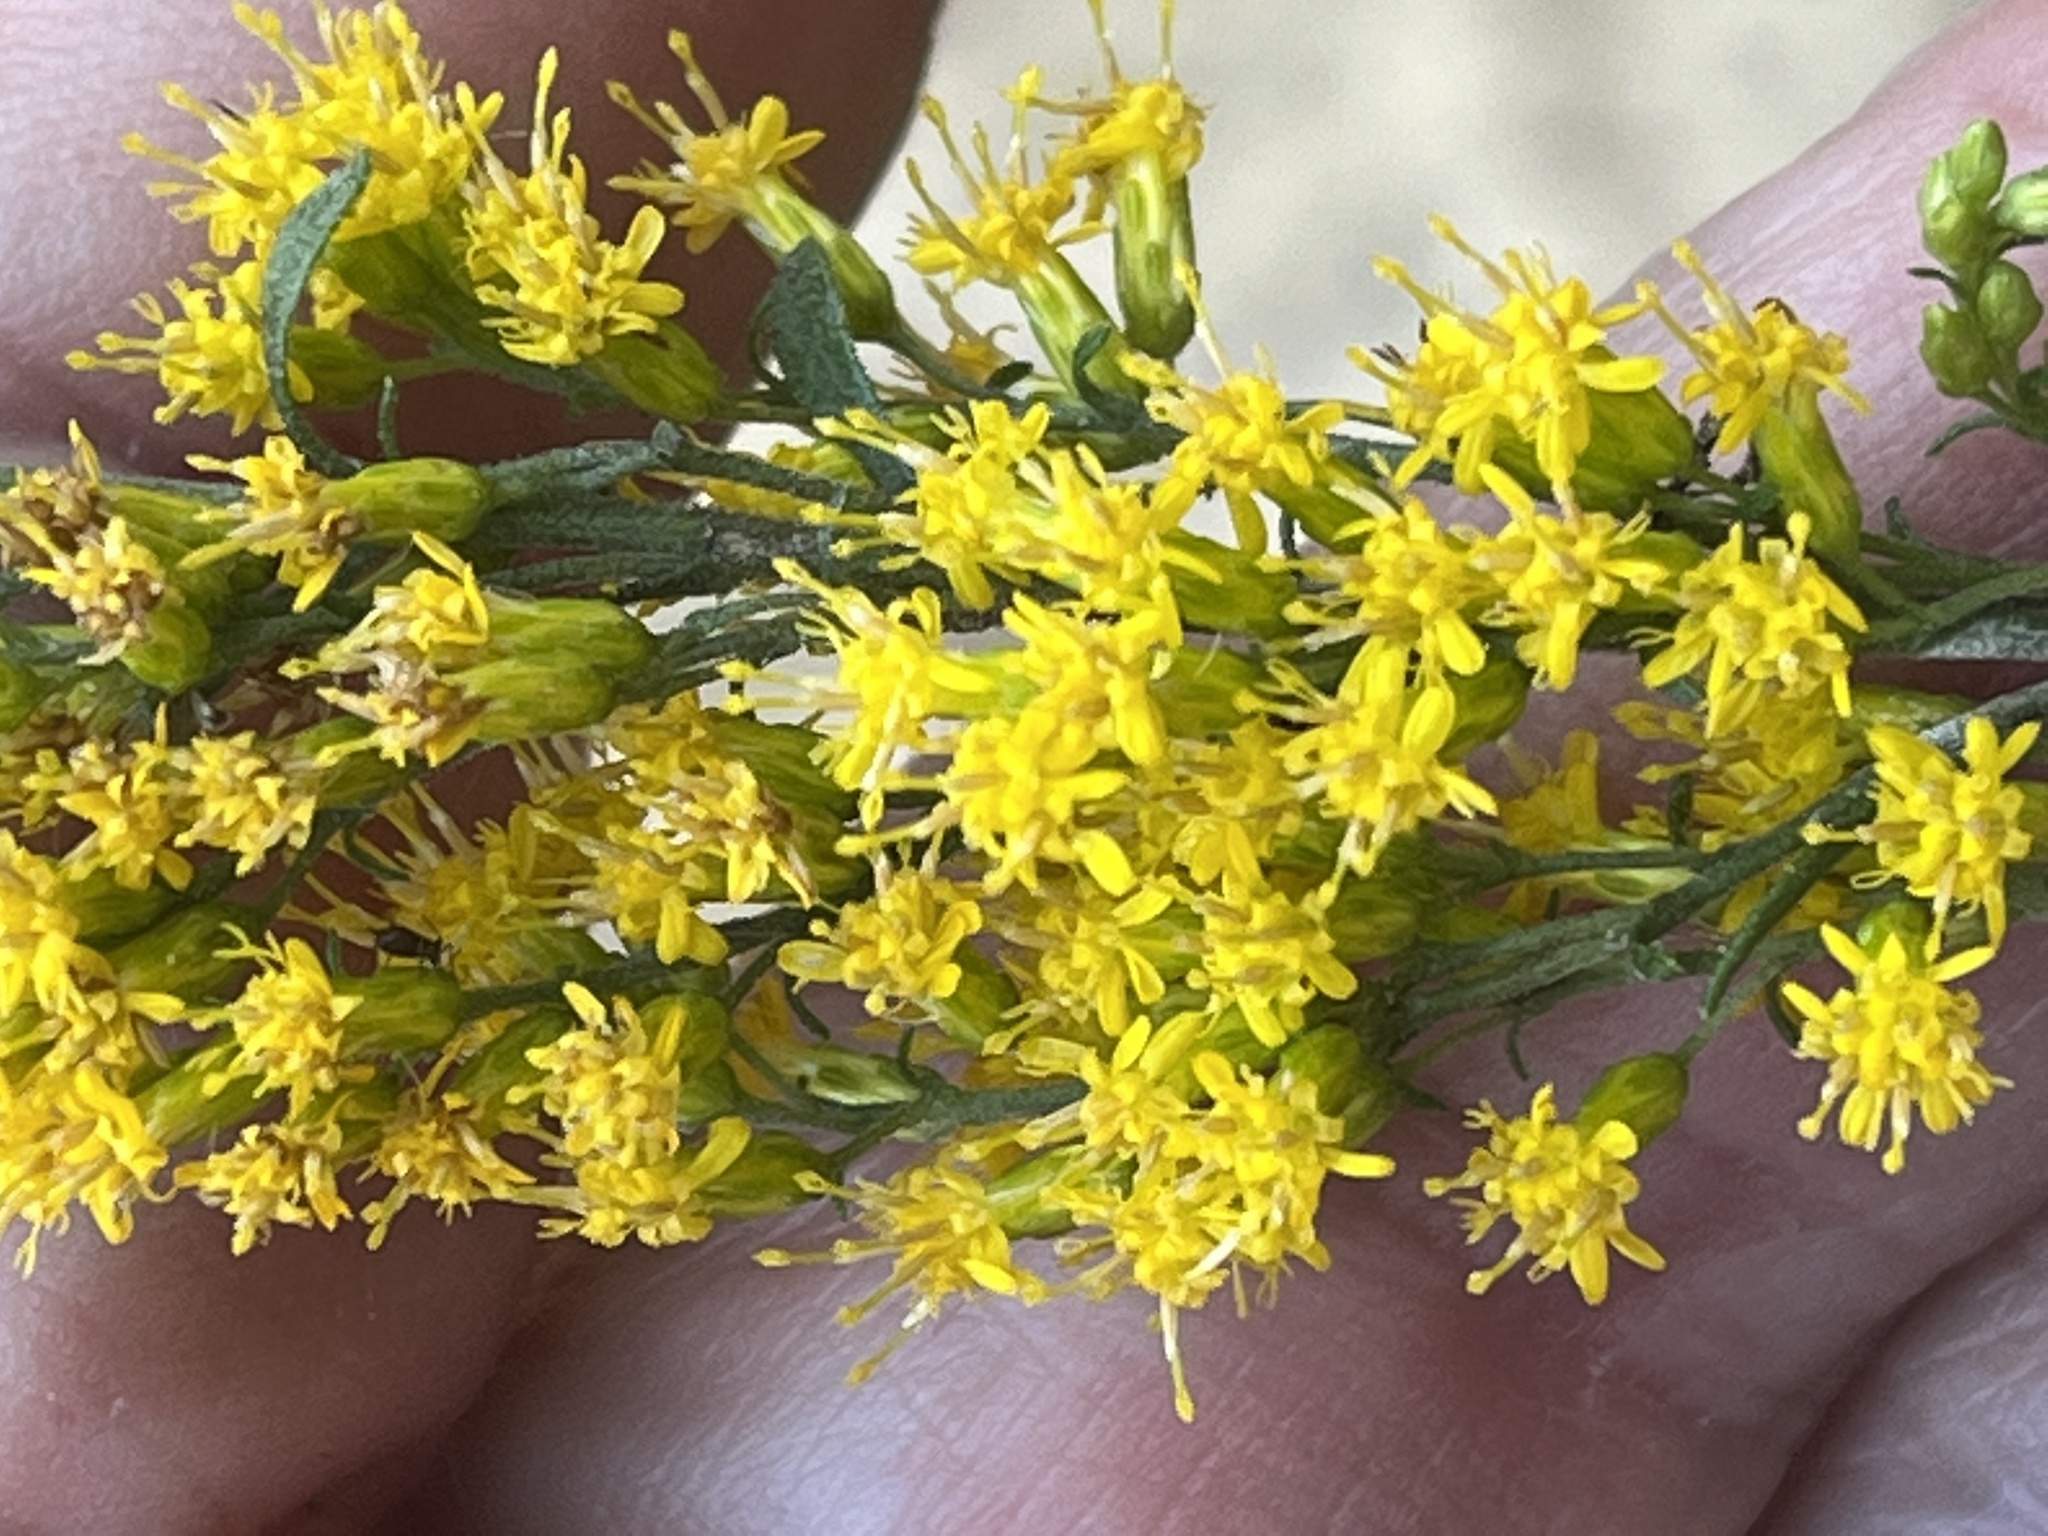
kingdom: Plantae
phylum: Tracheophyta
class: Magnoliopsida
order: Asterales
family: Asteraceae
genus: Solidago
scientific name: Solidago nemoralis
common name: Grey goldenrod
